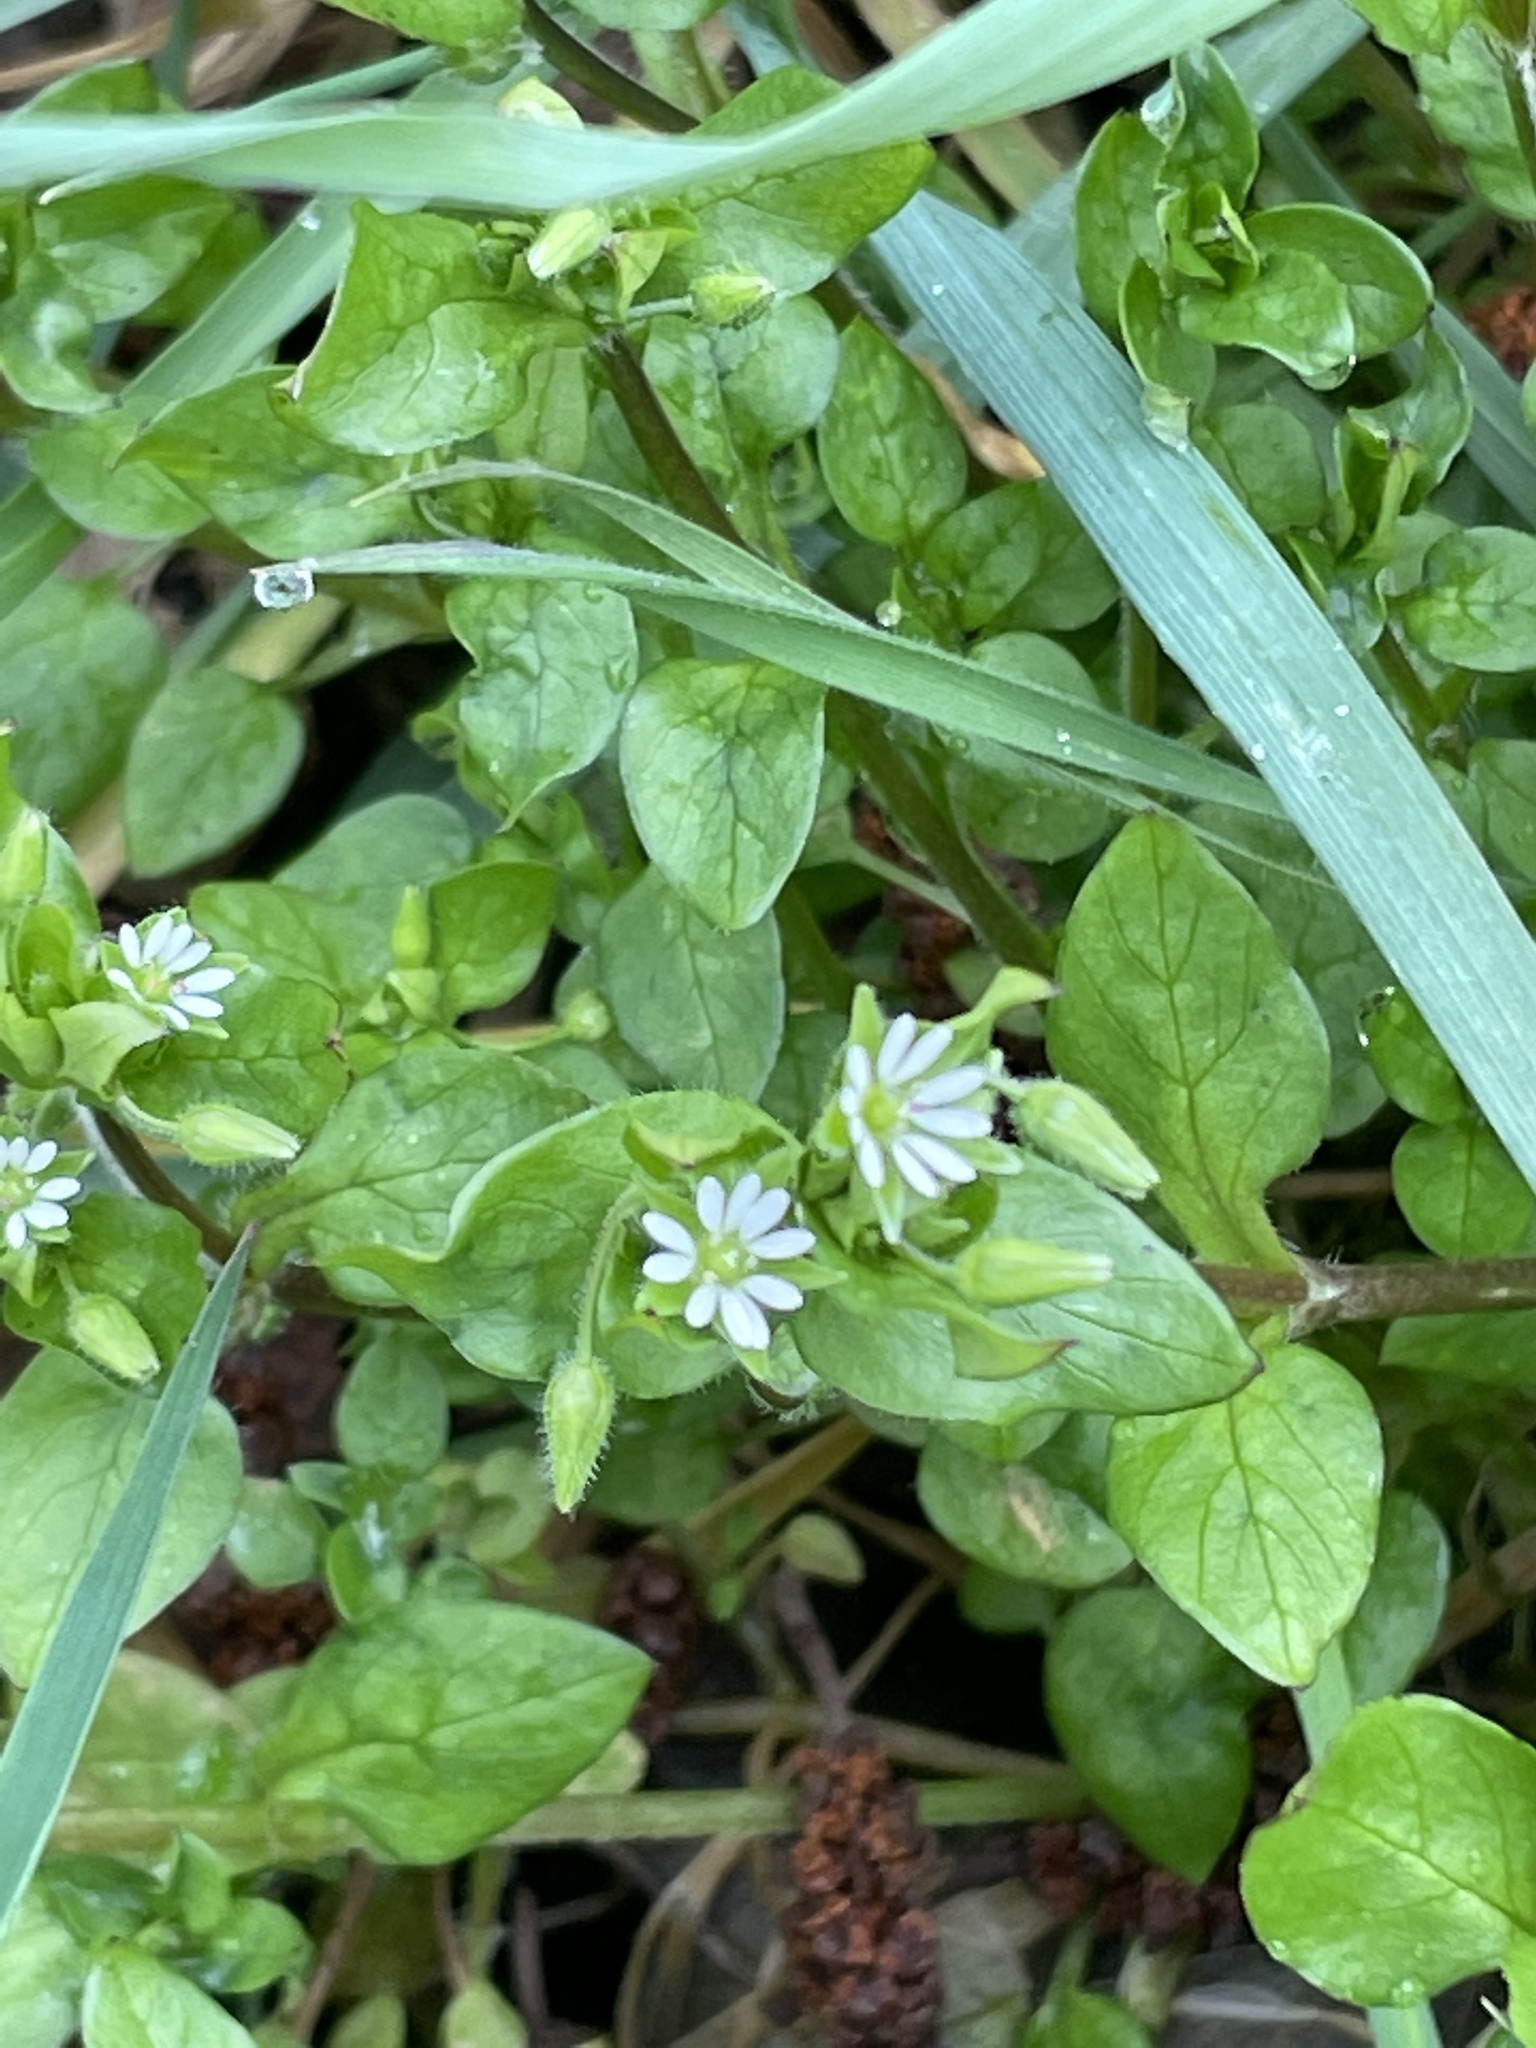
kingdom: Plantae
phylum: Tracheophyta
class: Magnoliopsida
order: Caryophyllales
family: Caryophyllaceae
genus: Stellaria
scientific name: Stellaria media
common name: Common chickweed
